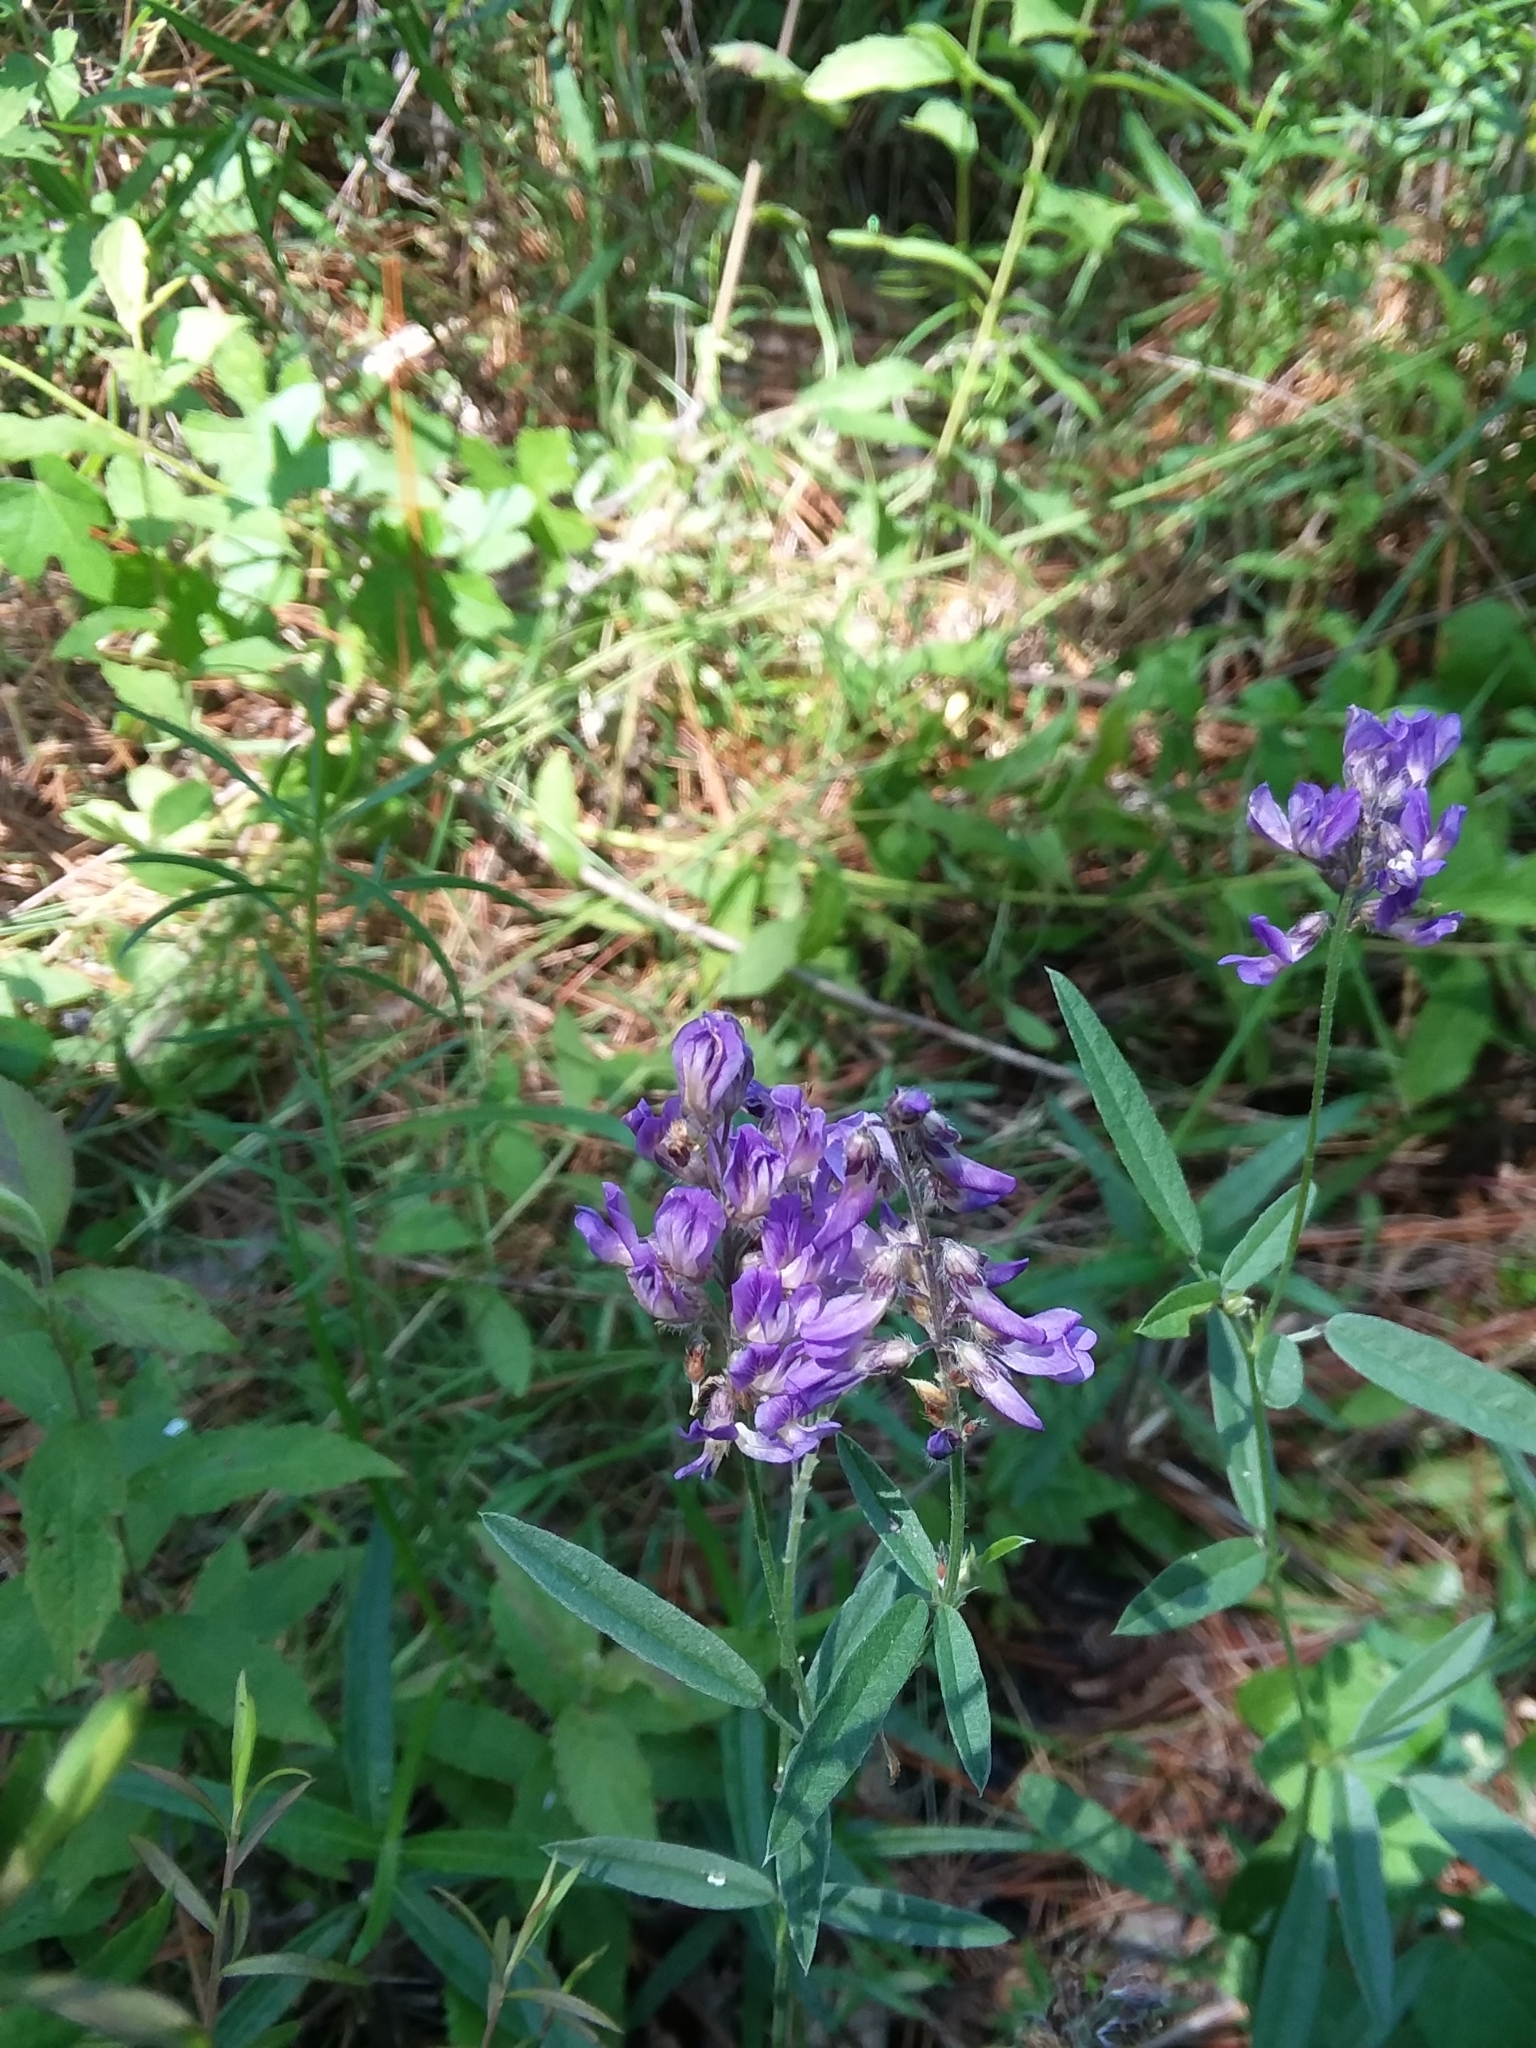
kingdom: Plantae
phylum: Tracheophyta
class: Magnoliopsida
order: Fabales
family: Fabaceae
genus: Orbexilum
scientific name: Orbexilum simplex
